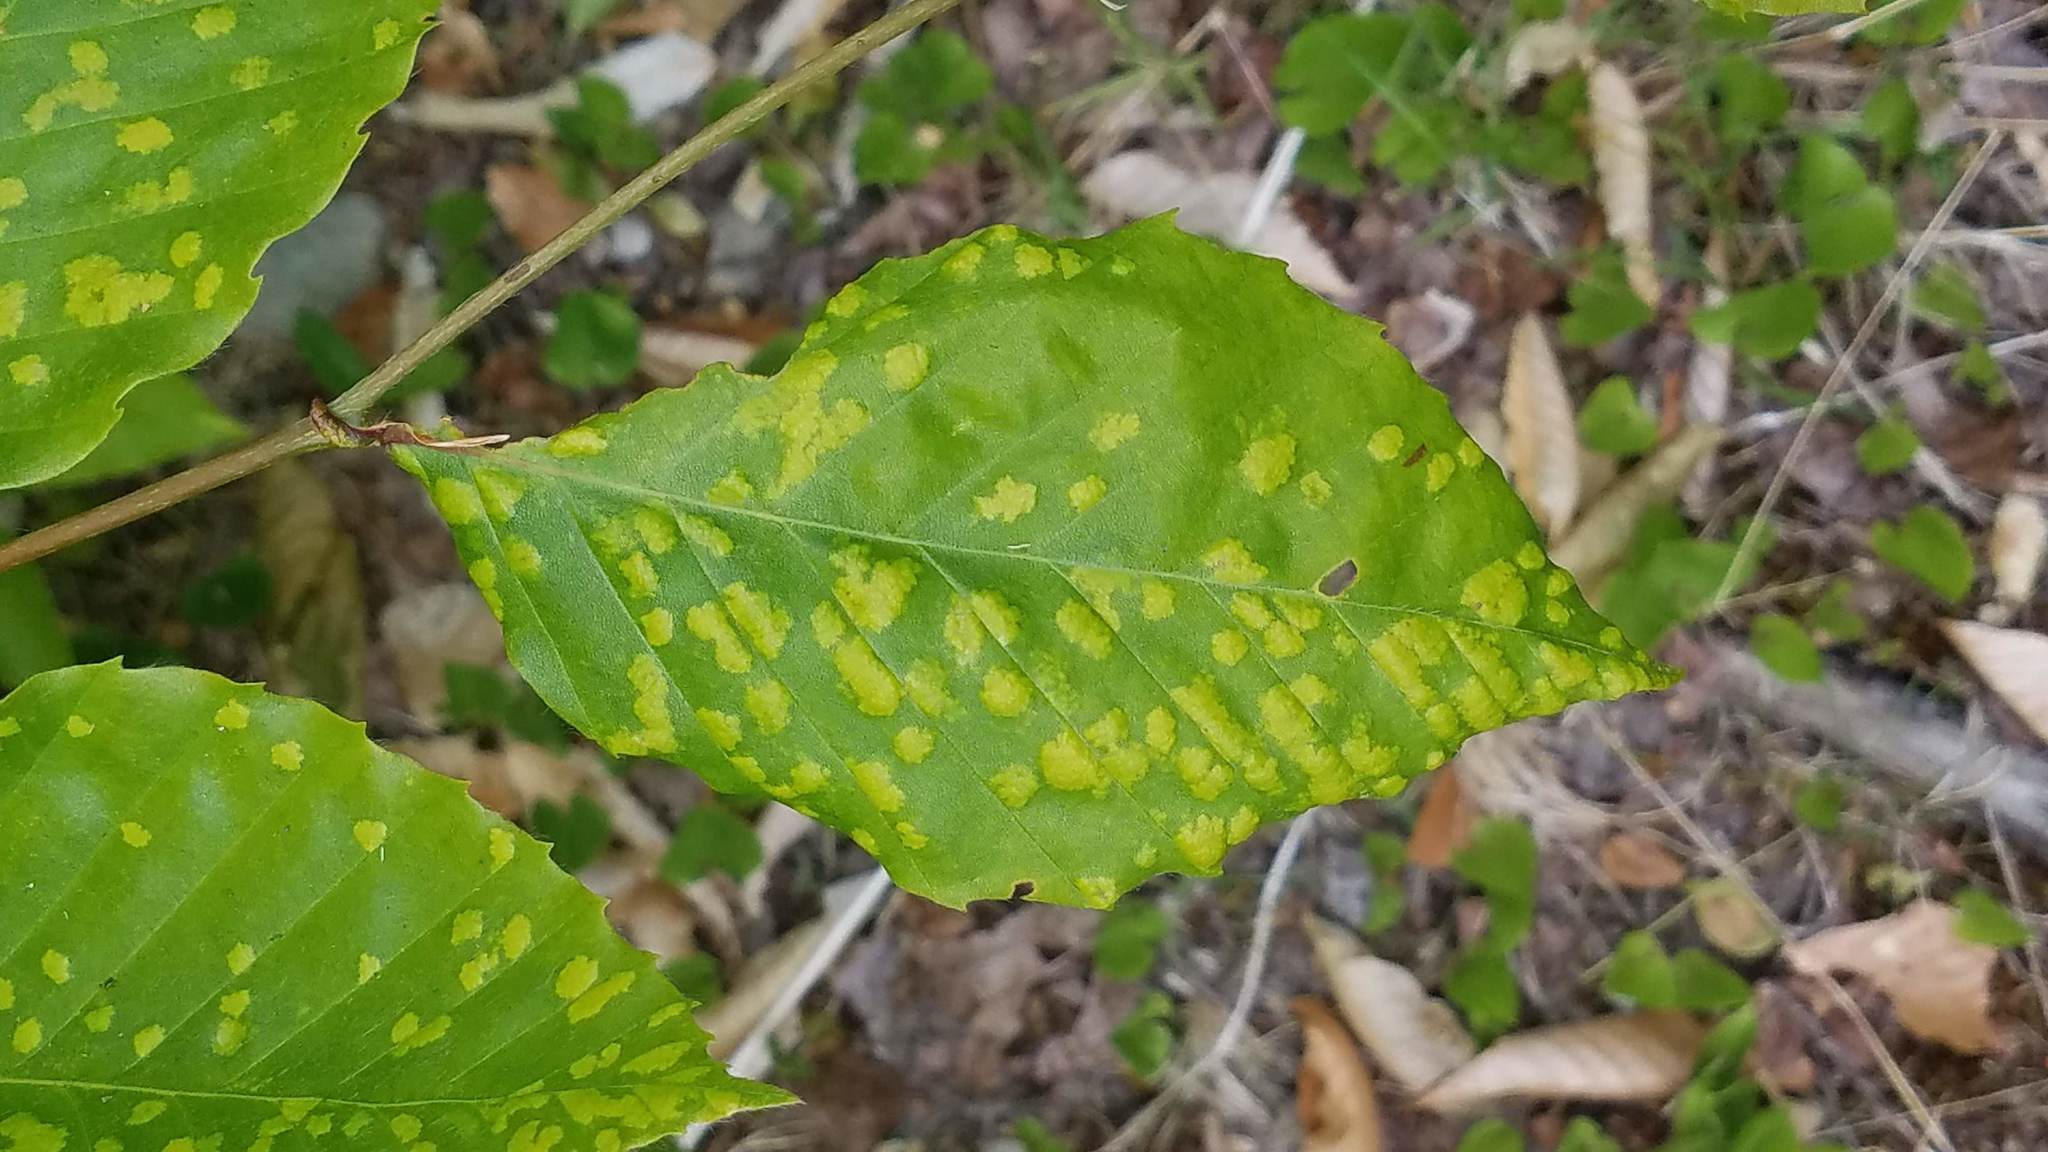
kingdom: Animalia
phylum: Arthropoda
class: Arachnida
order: Trombidiformes
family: Eriophyidae
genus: Acalitus
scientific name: Acalitus
